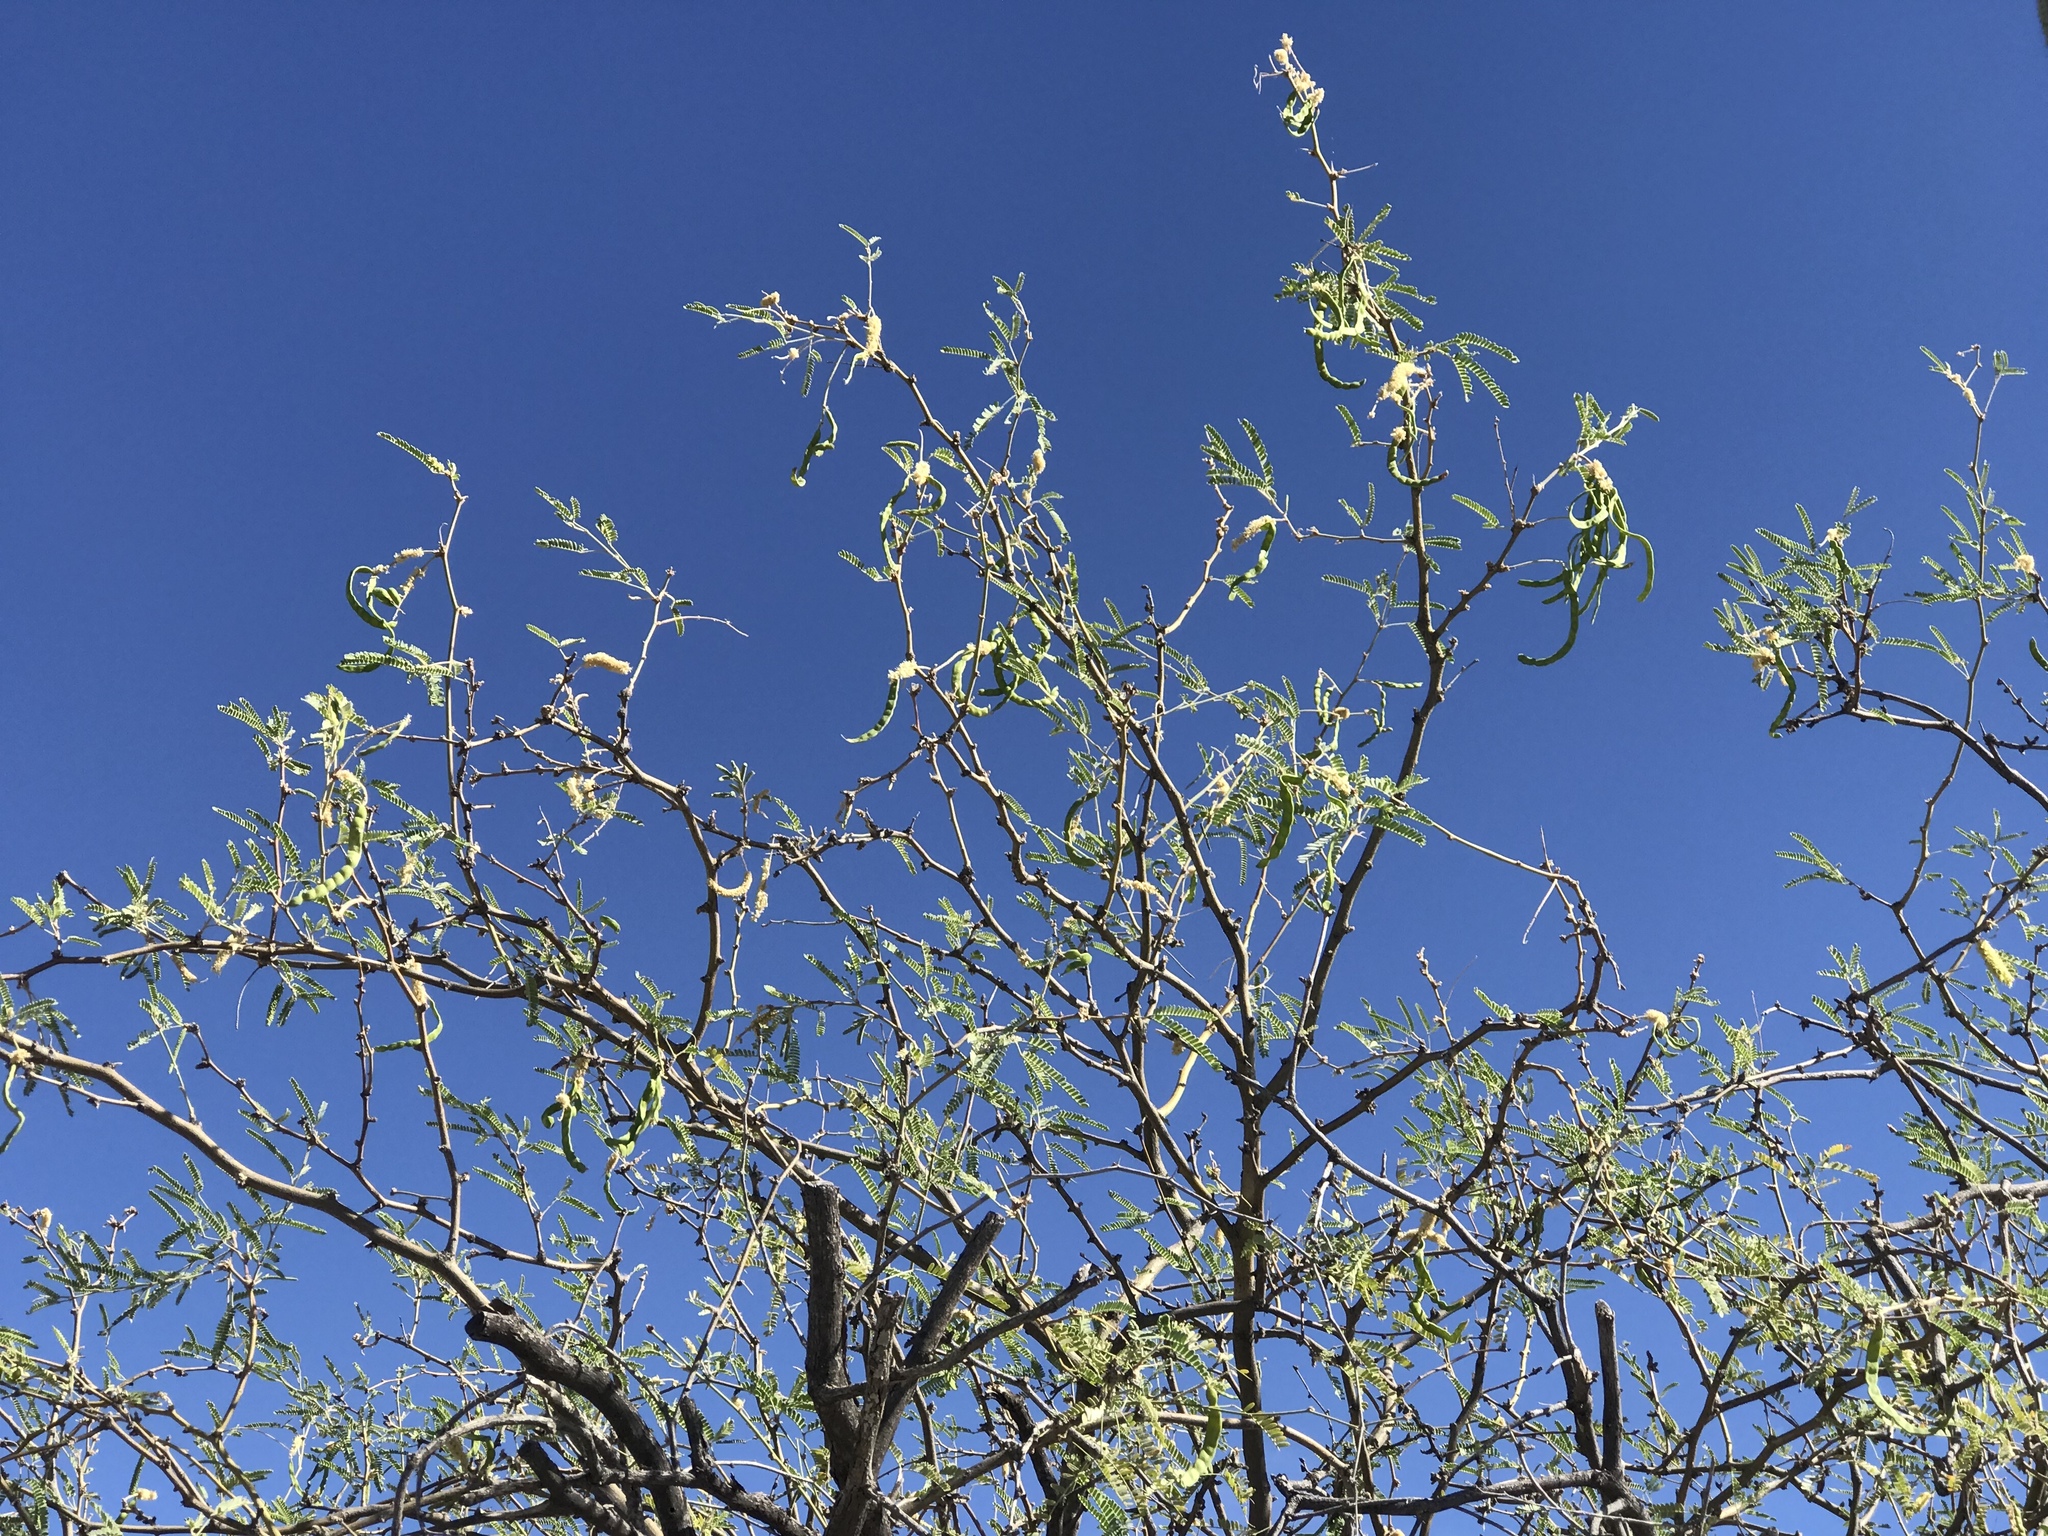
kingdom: Plantae
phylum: Tracheophyta
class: Magnoliopsida
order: Fabales
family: Fabaceae
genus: Prosopis
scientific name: Prosopis velutina
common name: Velvet mesquite
